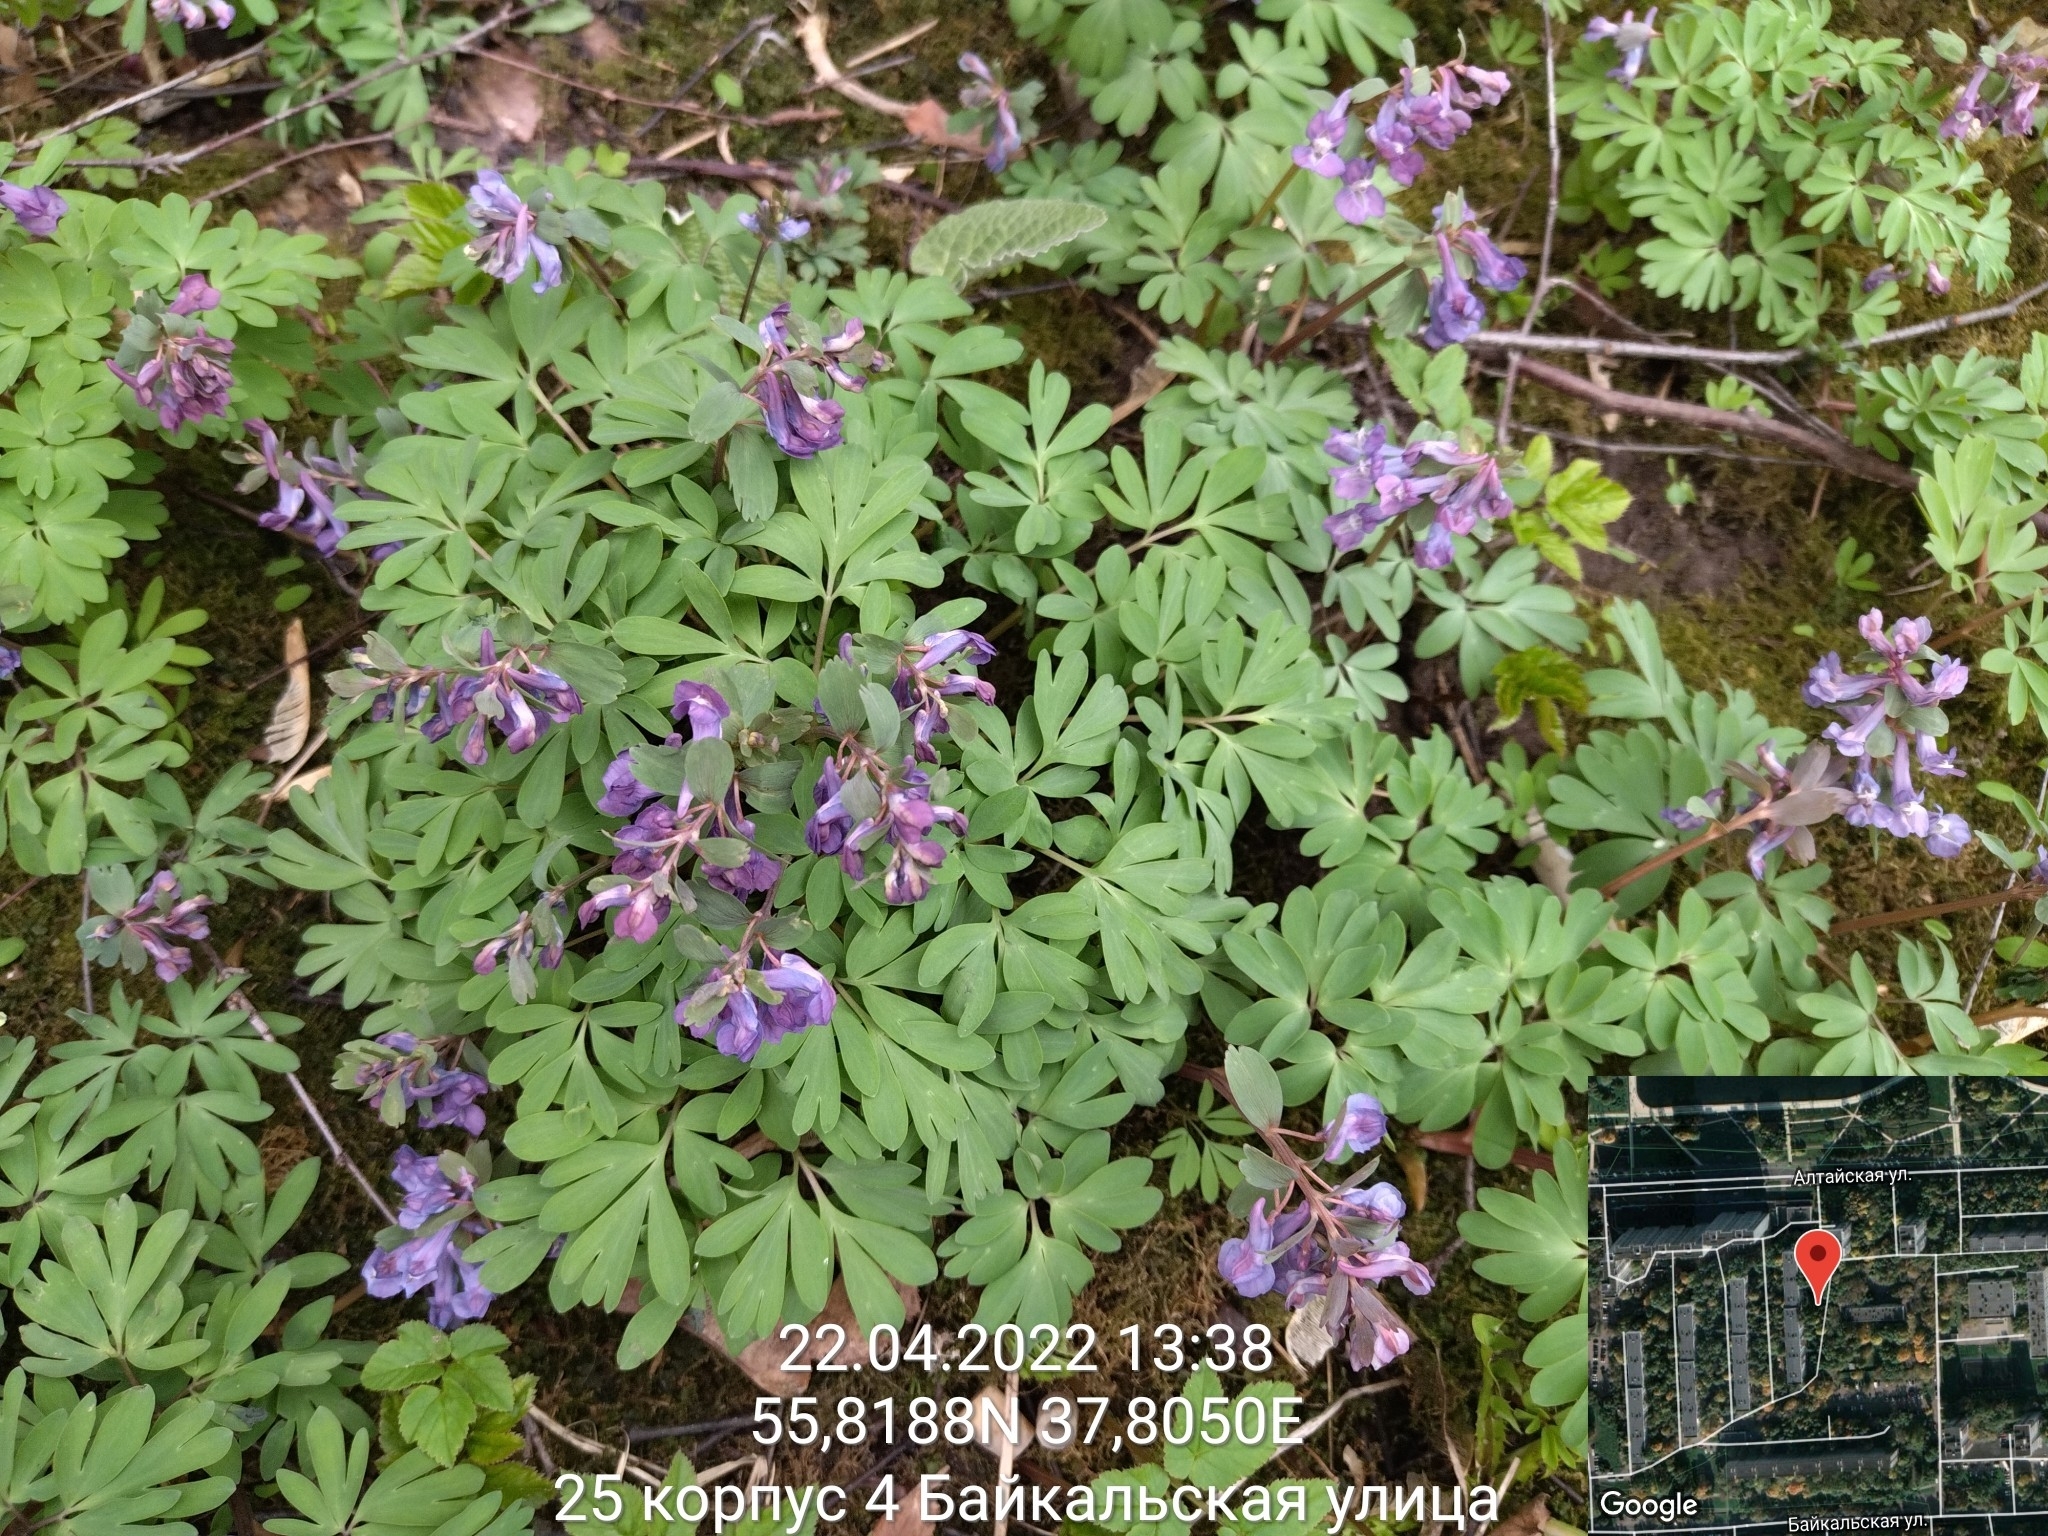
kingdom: Plantae
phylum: Tracheophyta
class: Magnoliopsida
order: Ranunculales
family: Papaveraceae
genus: Corydalis
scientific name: Corydalis solida
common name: Bird-in-a-bush
